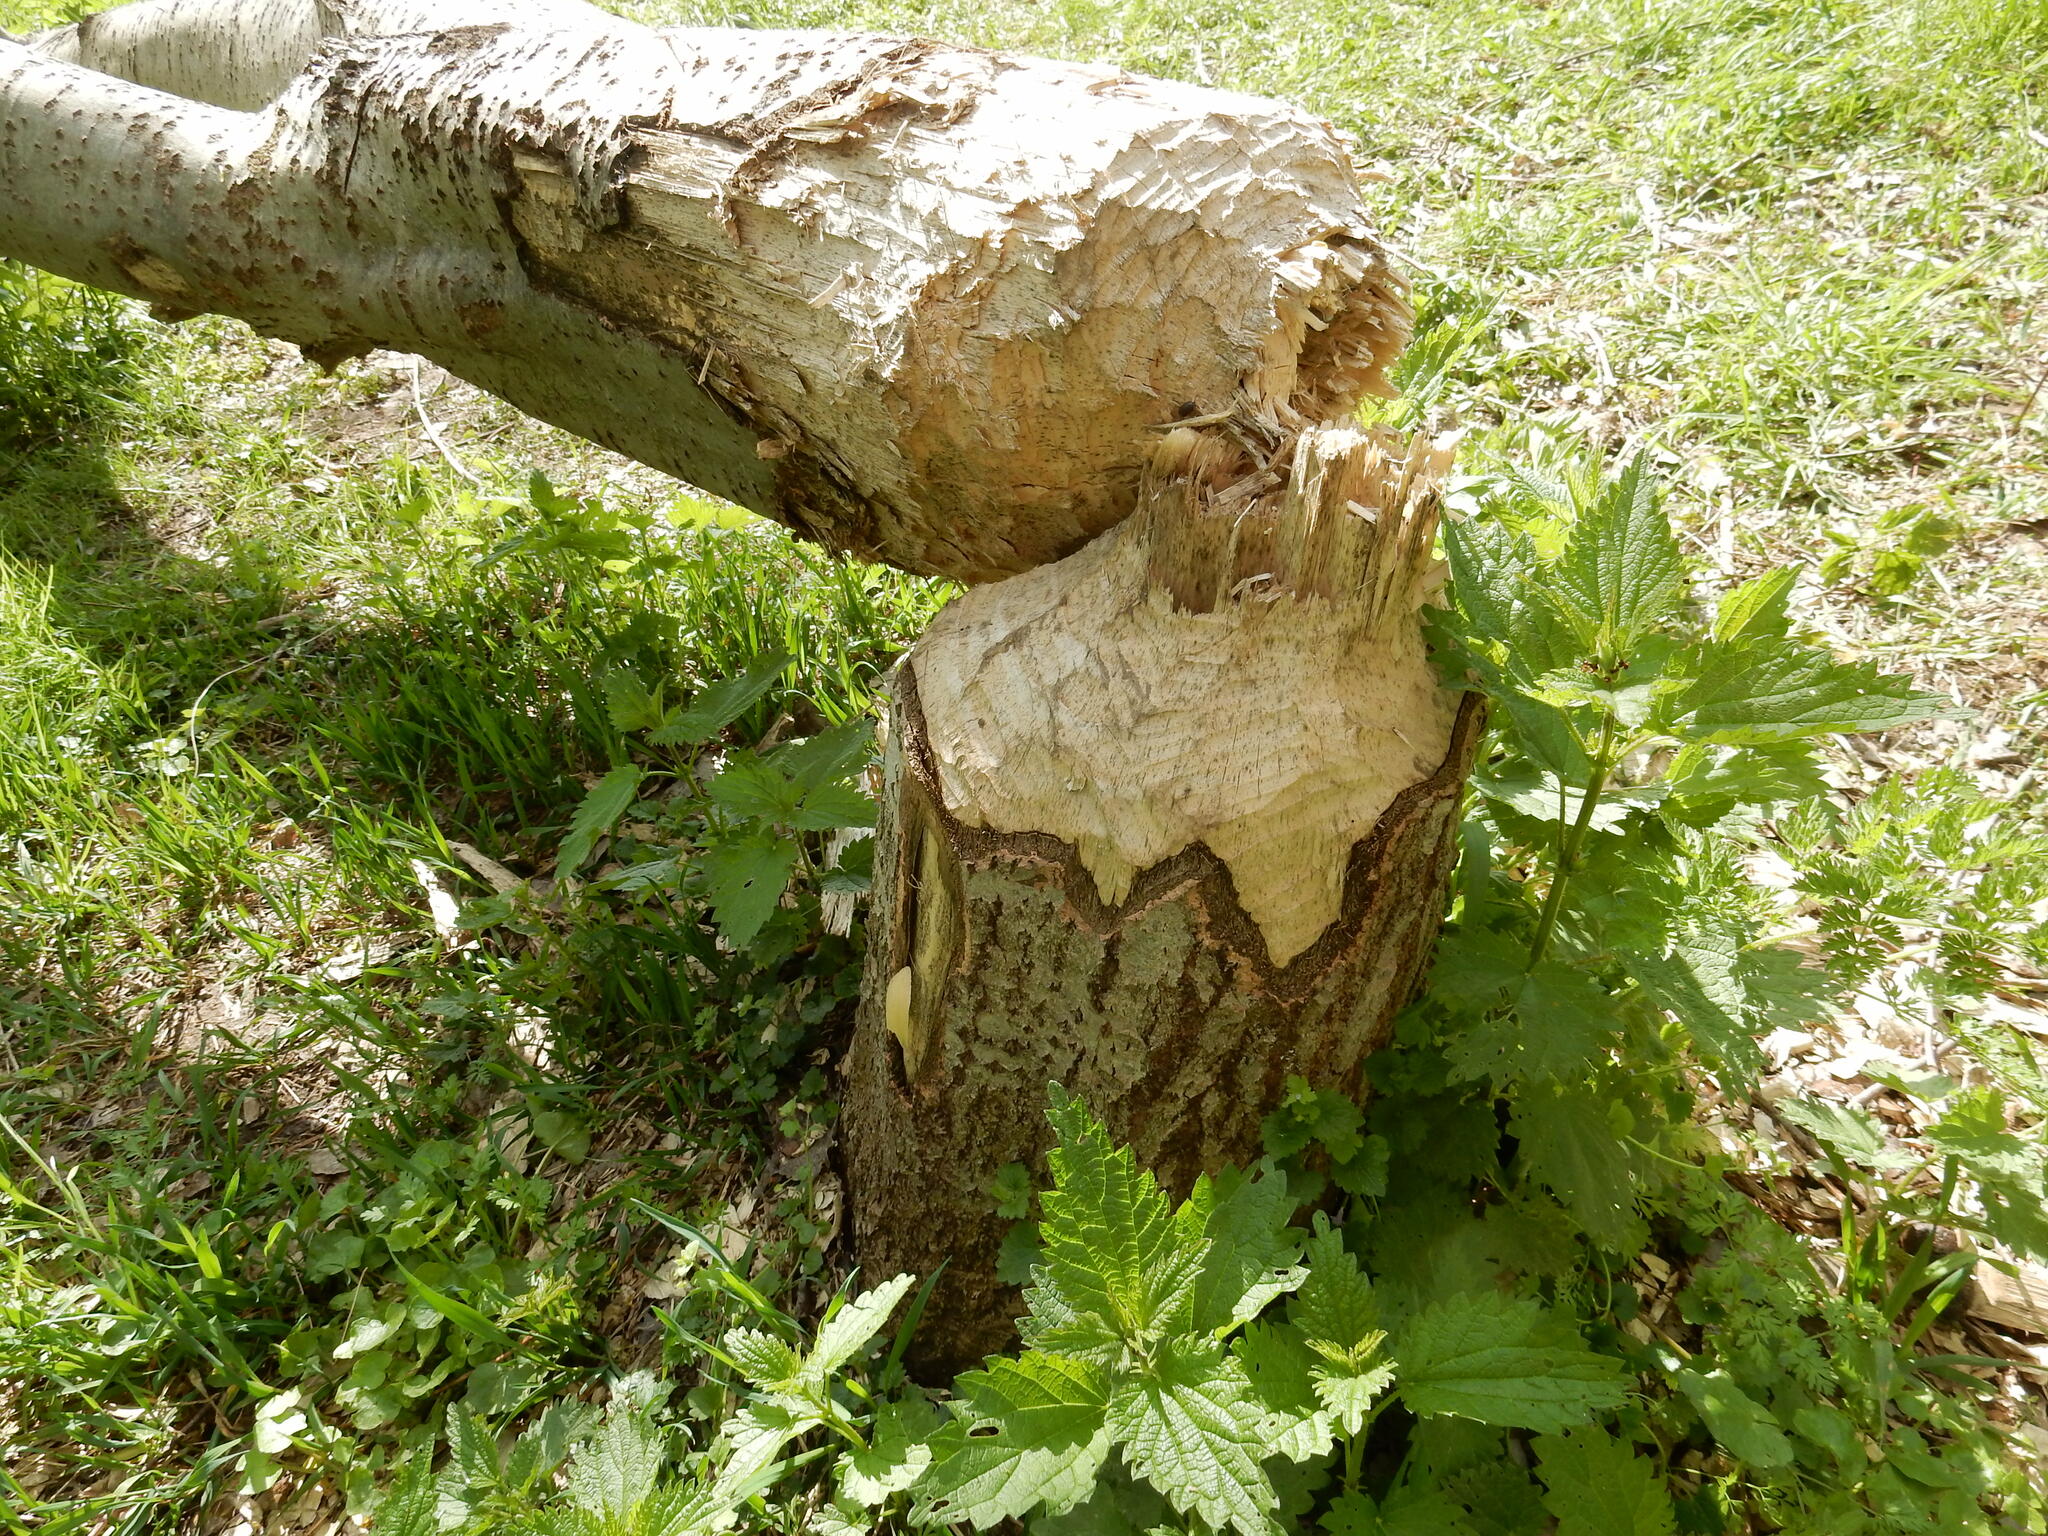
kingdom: Animalia
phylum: Chordata
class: Mammalia
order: Rodentia
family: Castoridae
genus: Castor
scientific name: Castor fiber
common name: Eurasian beaver
